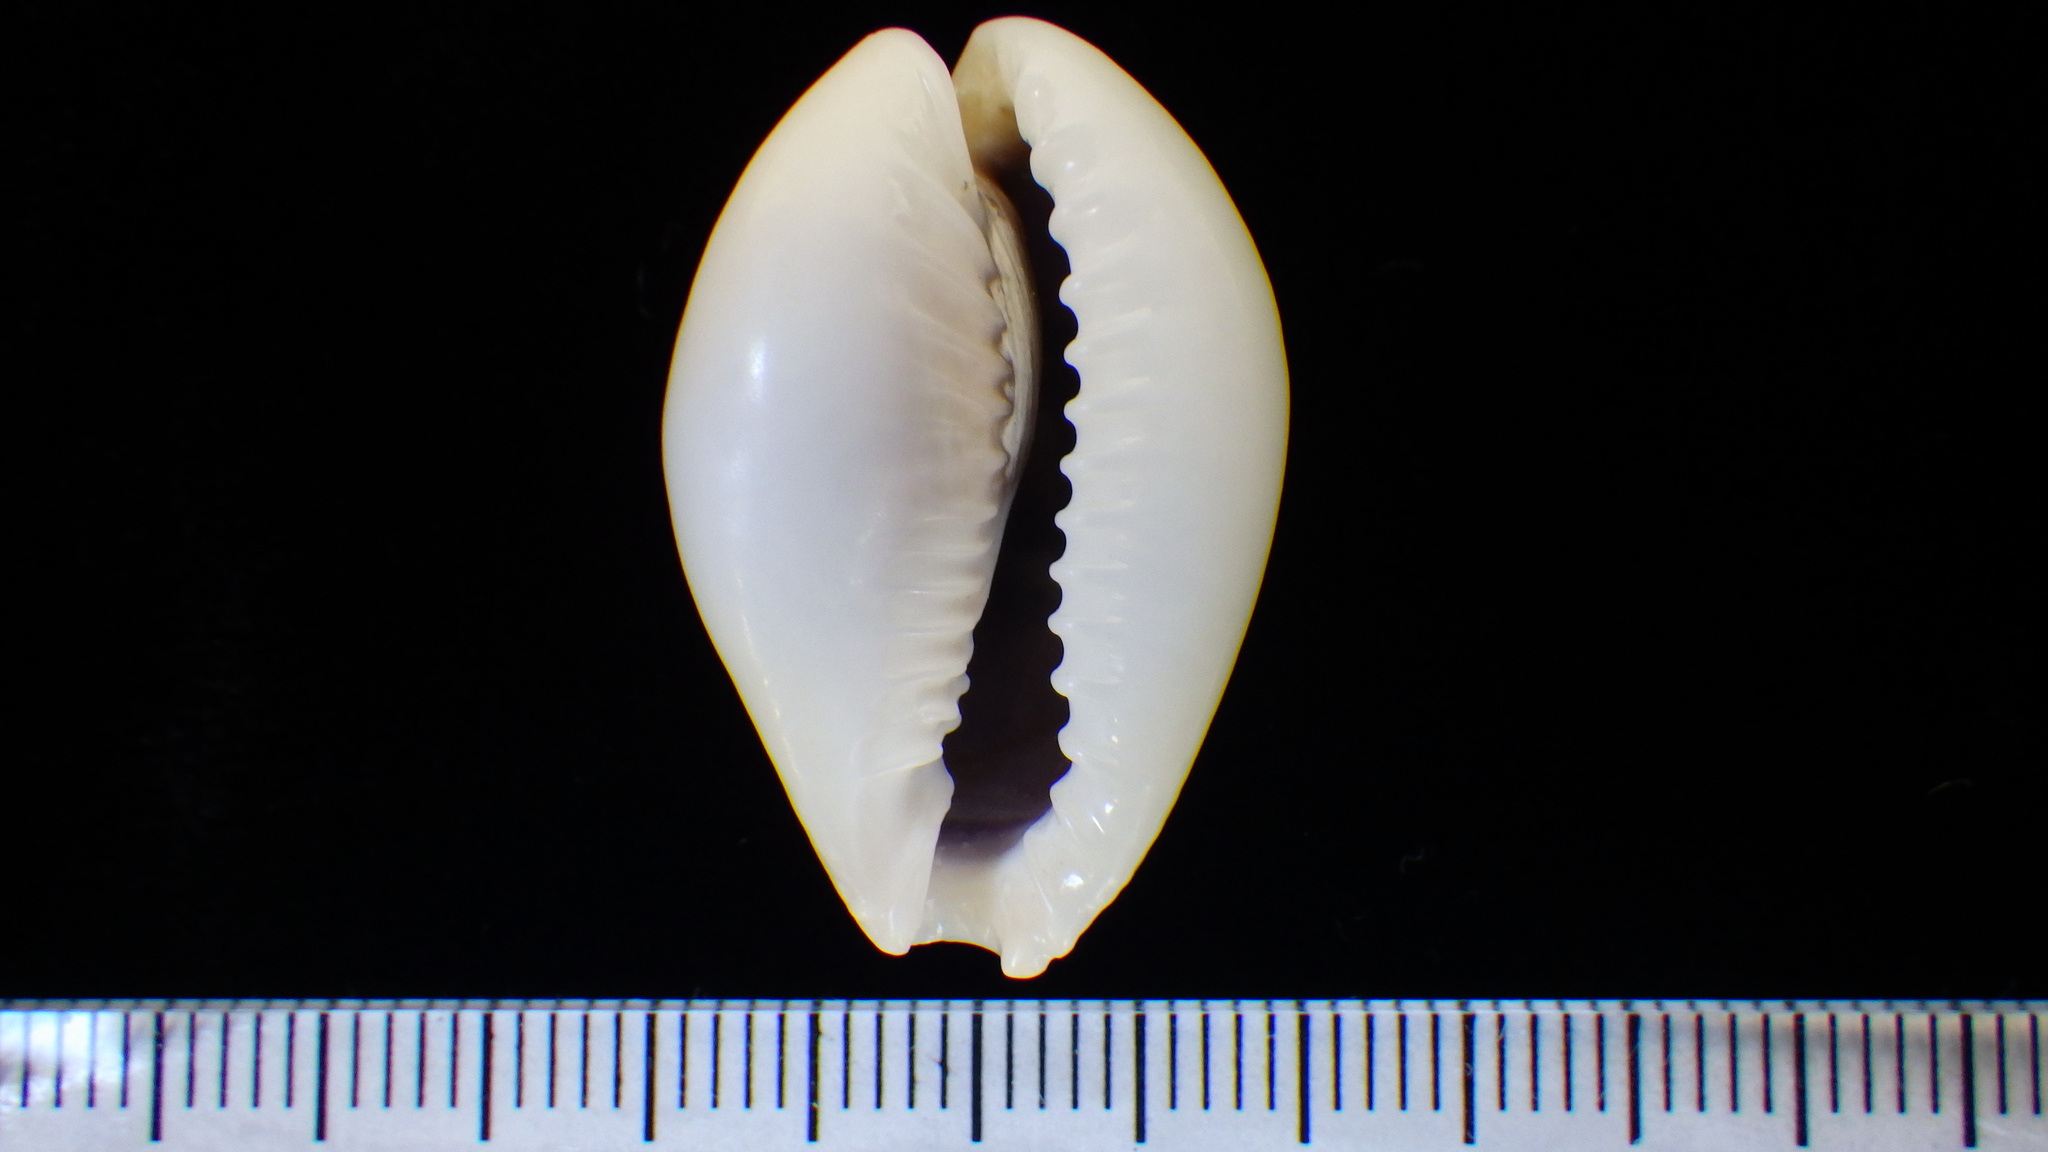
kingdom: Animalia
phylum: Mollusca
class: Gastropoda
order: Littorinimorpha
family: Cypraeidae
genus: Naria
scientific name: Naria miliaris
